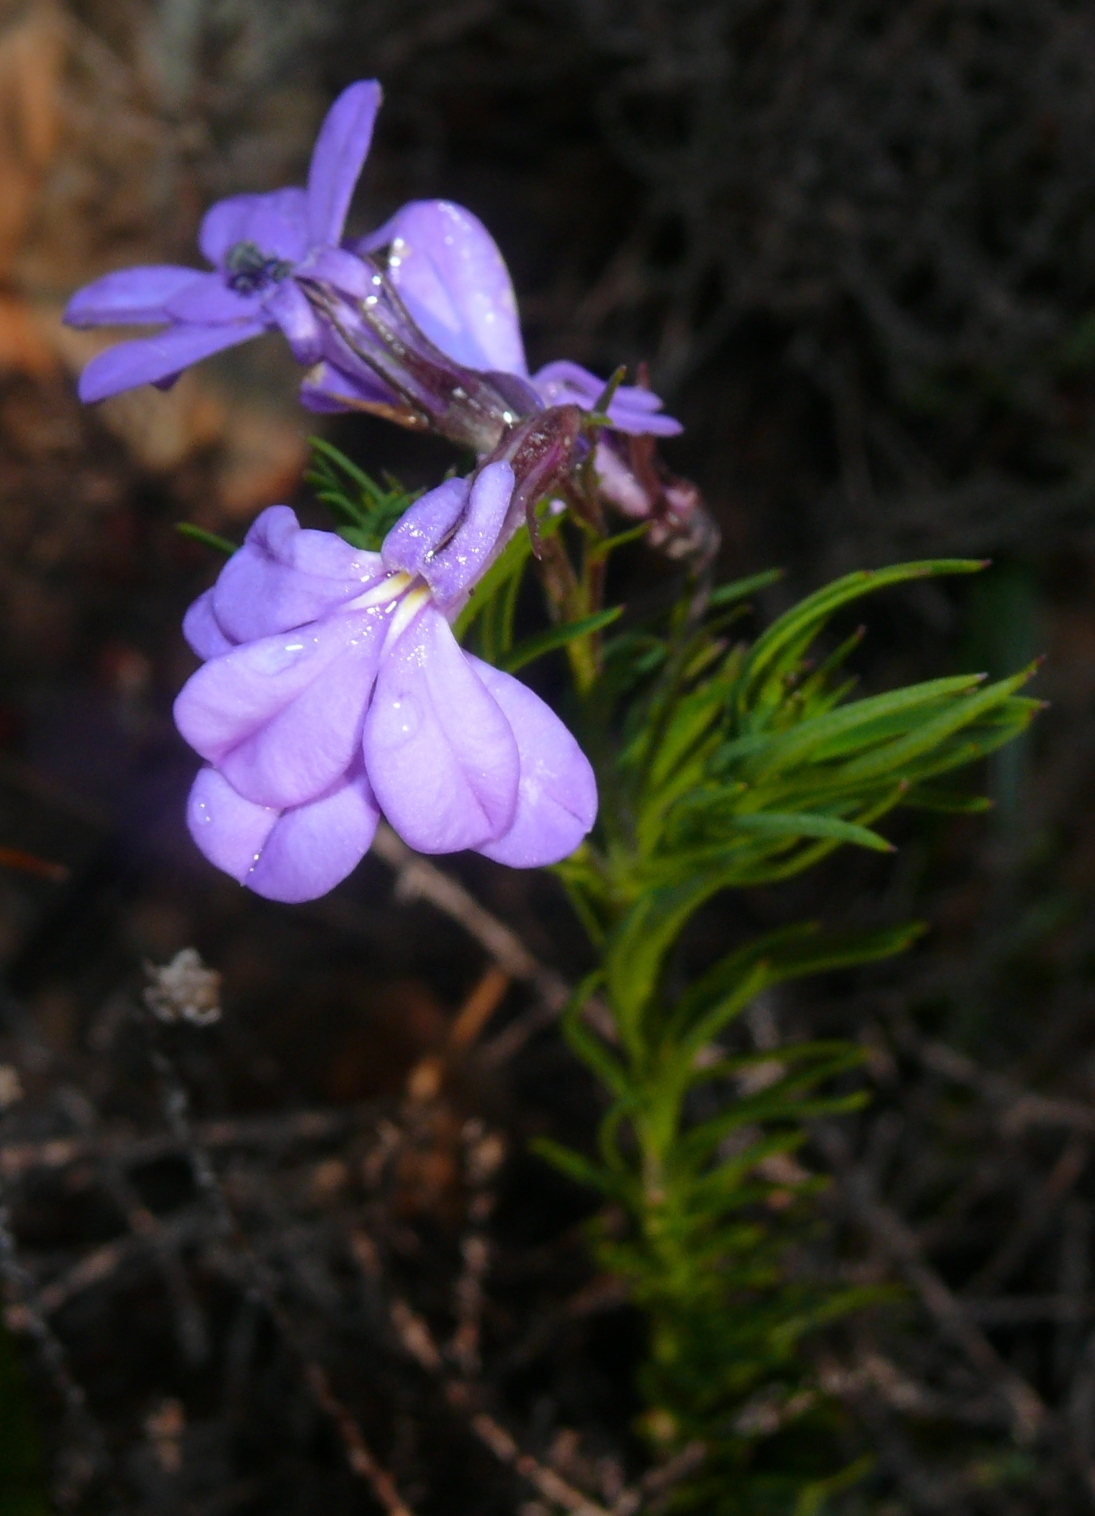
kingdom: Plantae
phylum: Tracheophyta
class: Magnoliopsida
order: Asterales
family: Campanulaceae
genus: Lobelia
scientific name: Lobelia pinifolia
